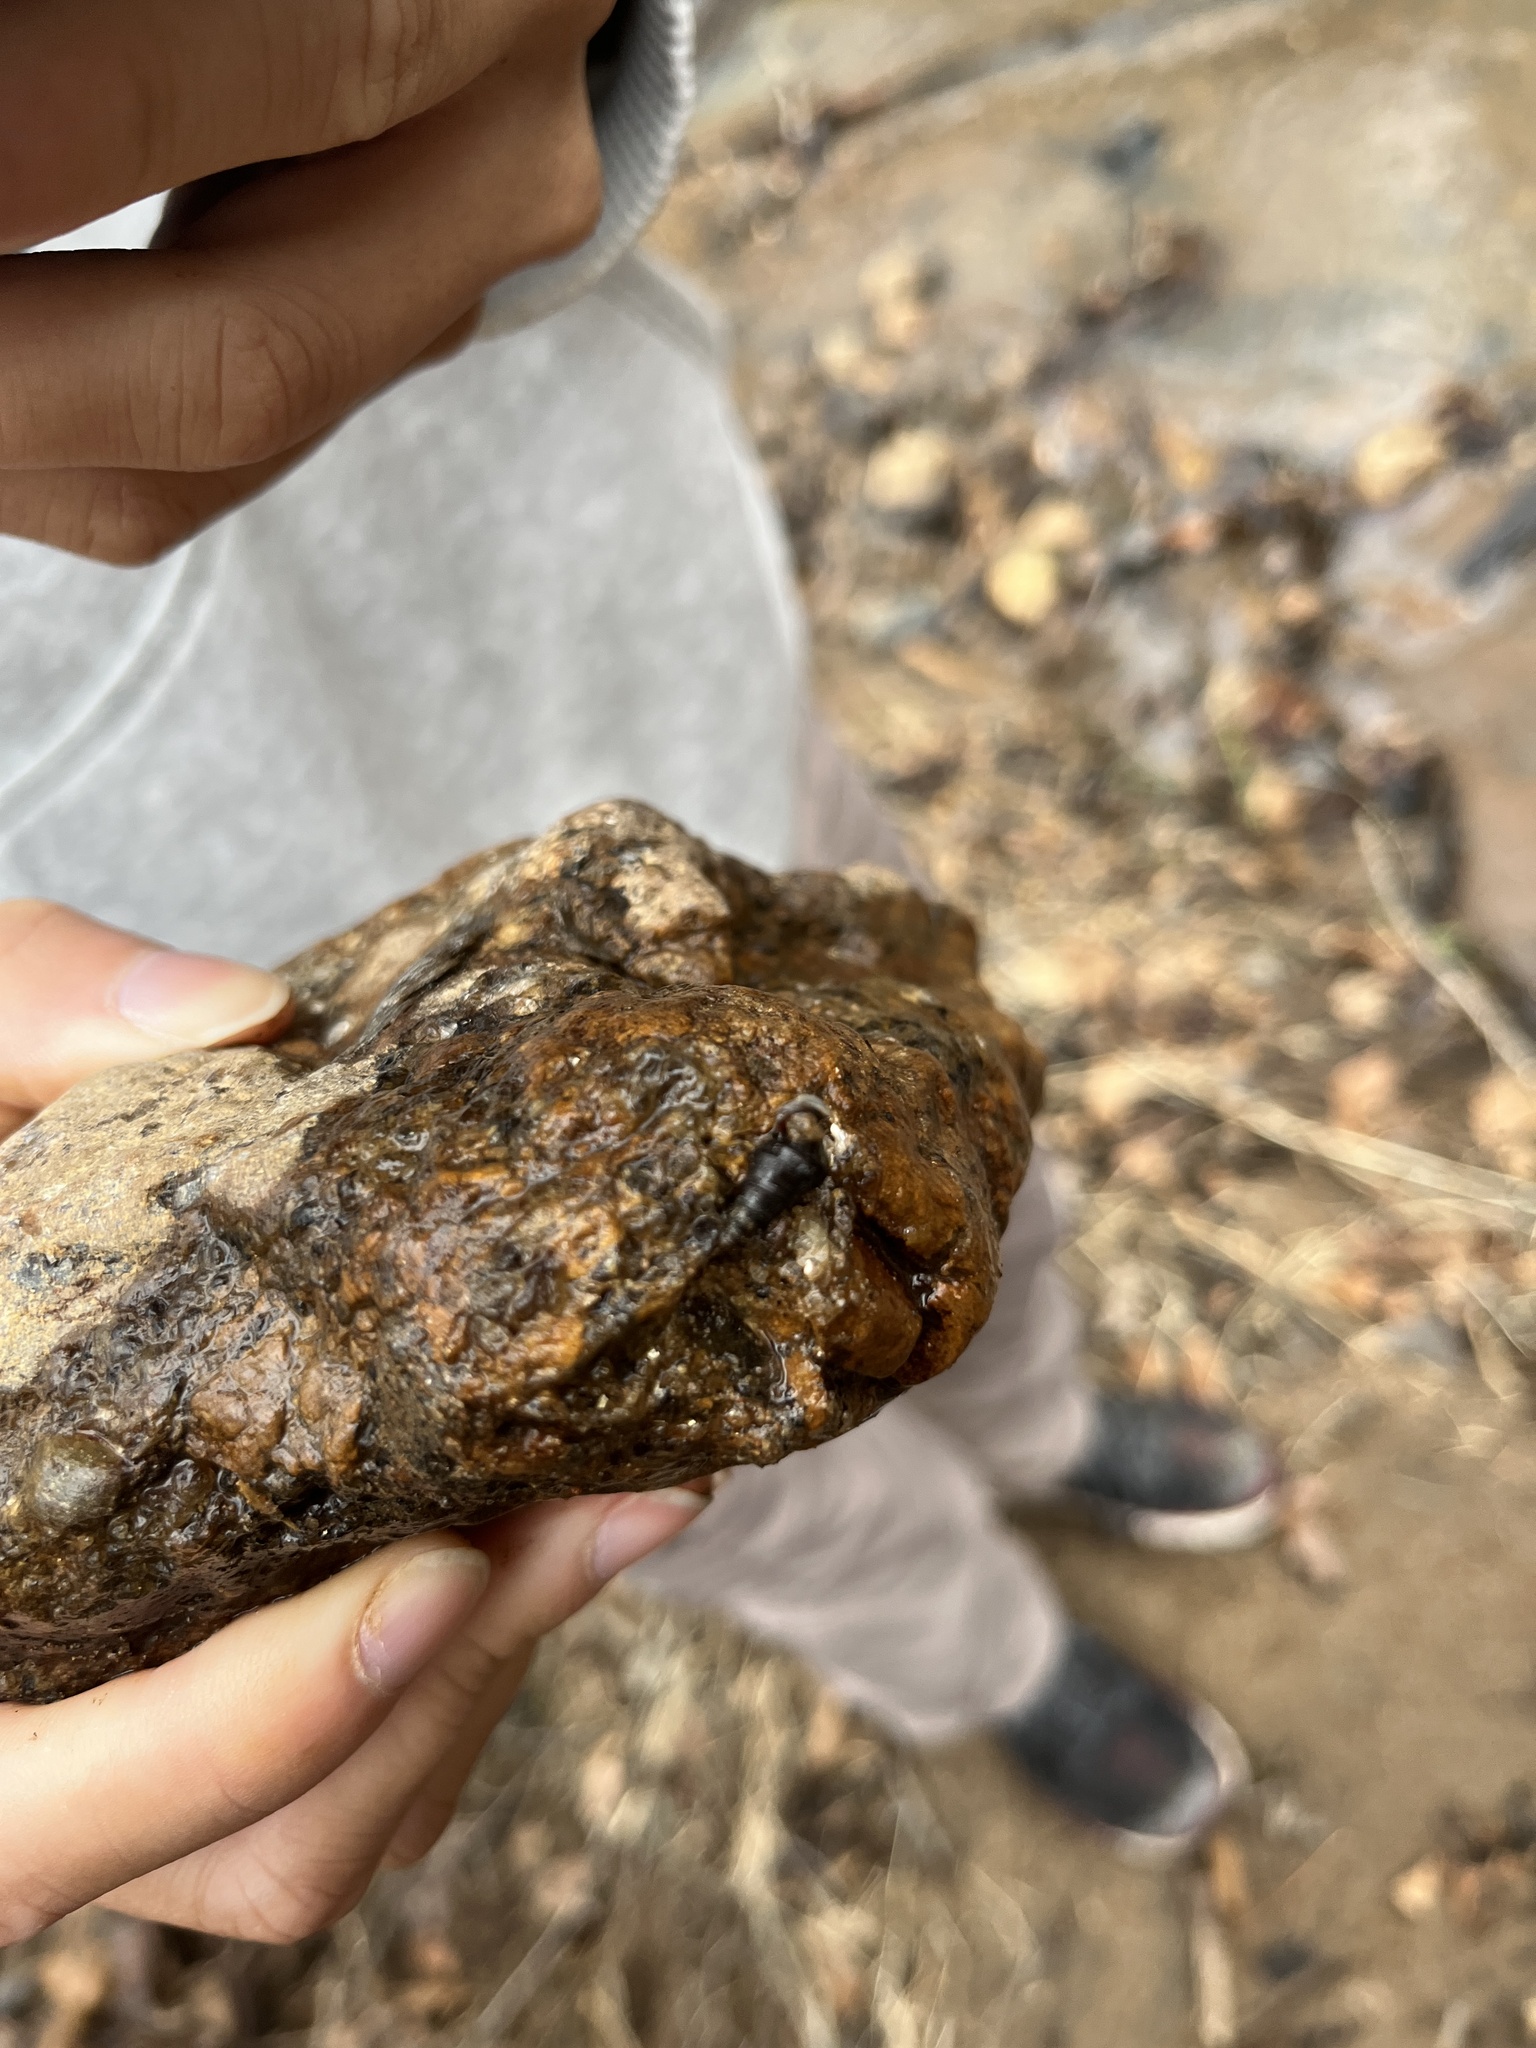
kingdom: Animalia
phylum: Mollusca
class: Gastropoda
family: Pleuroceridae
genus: Elimia
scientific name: Elimia symmetrica
